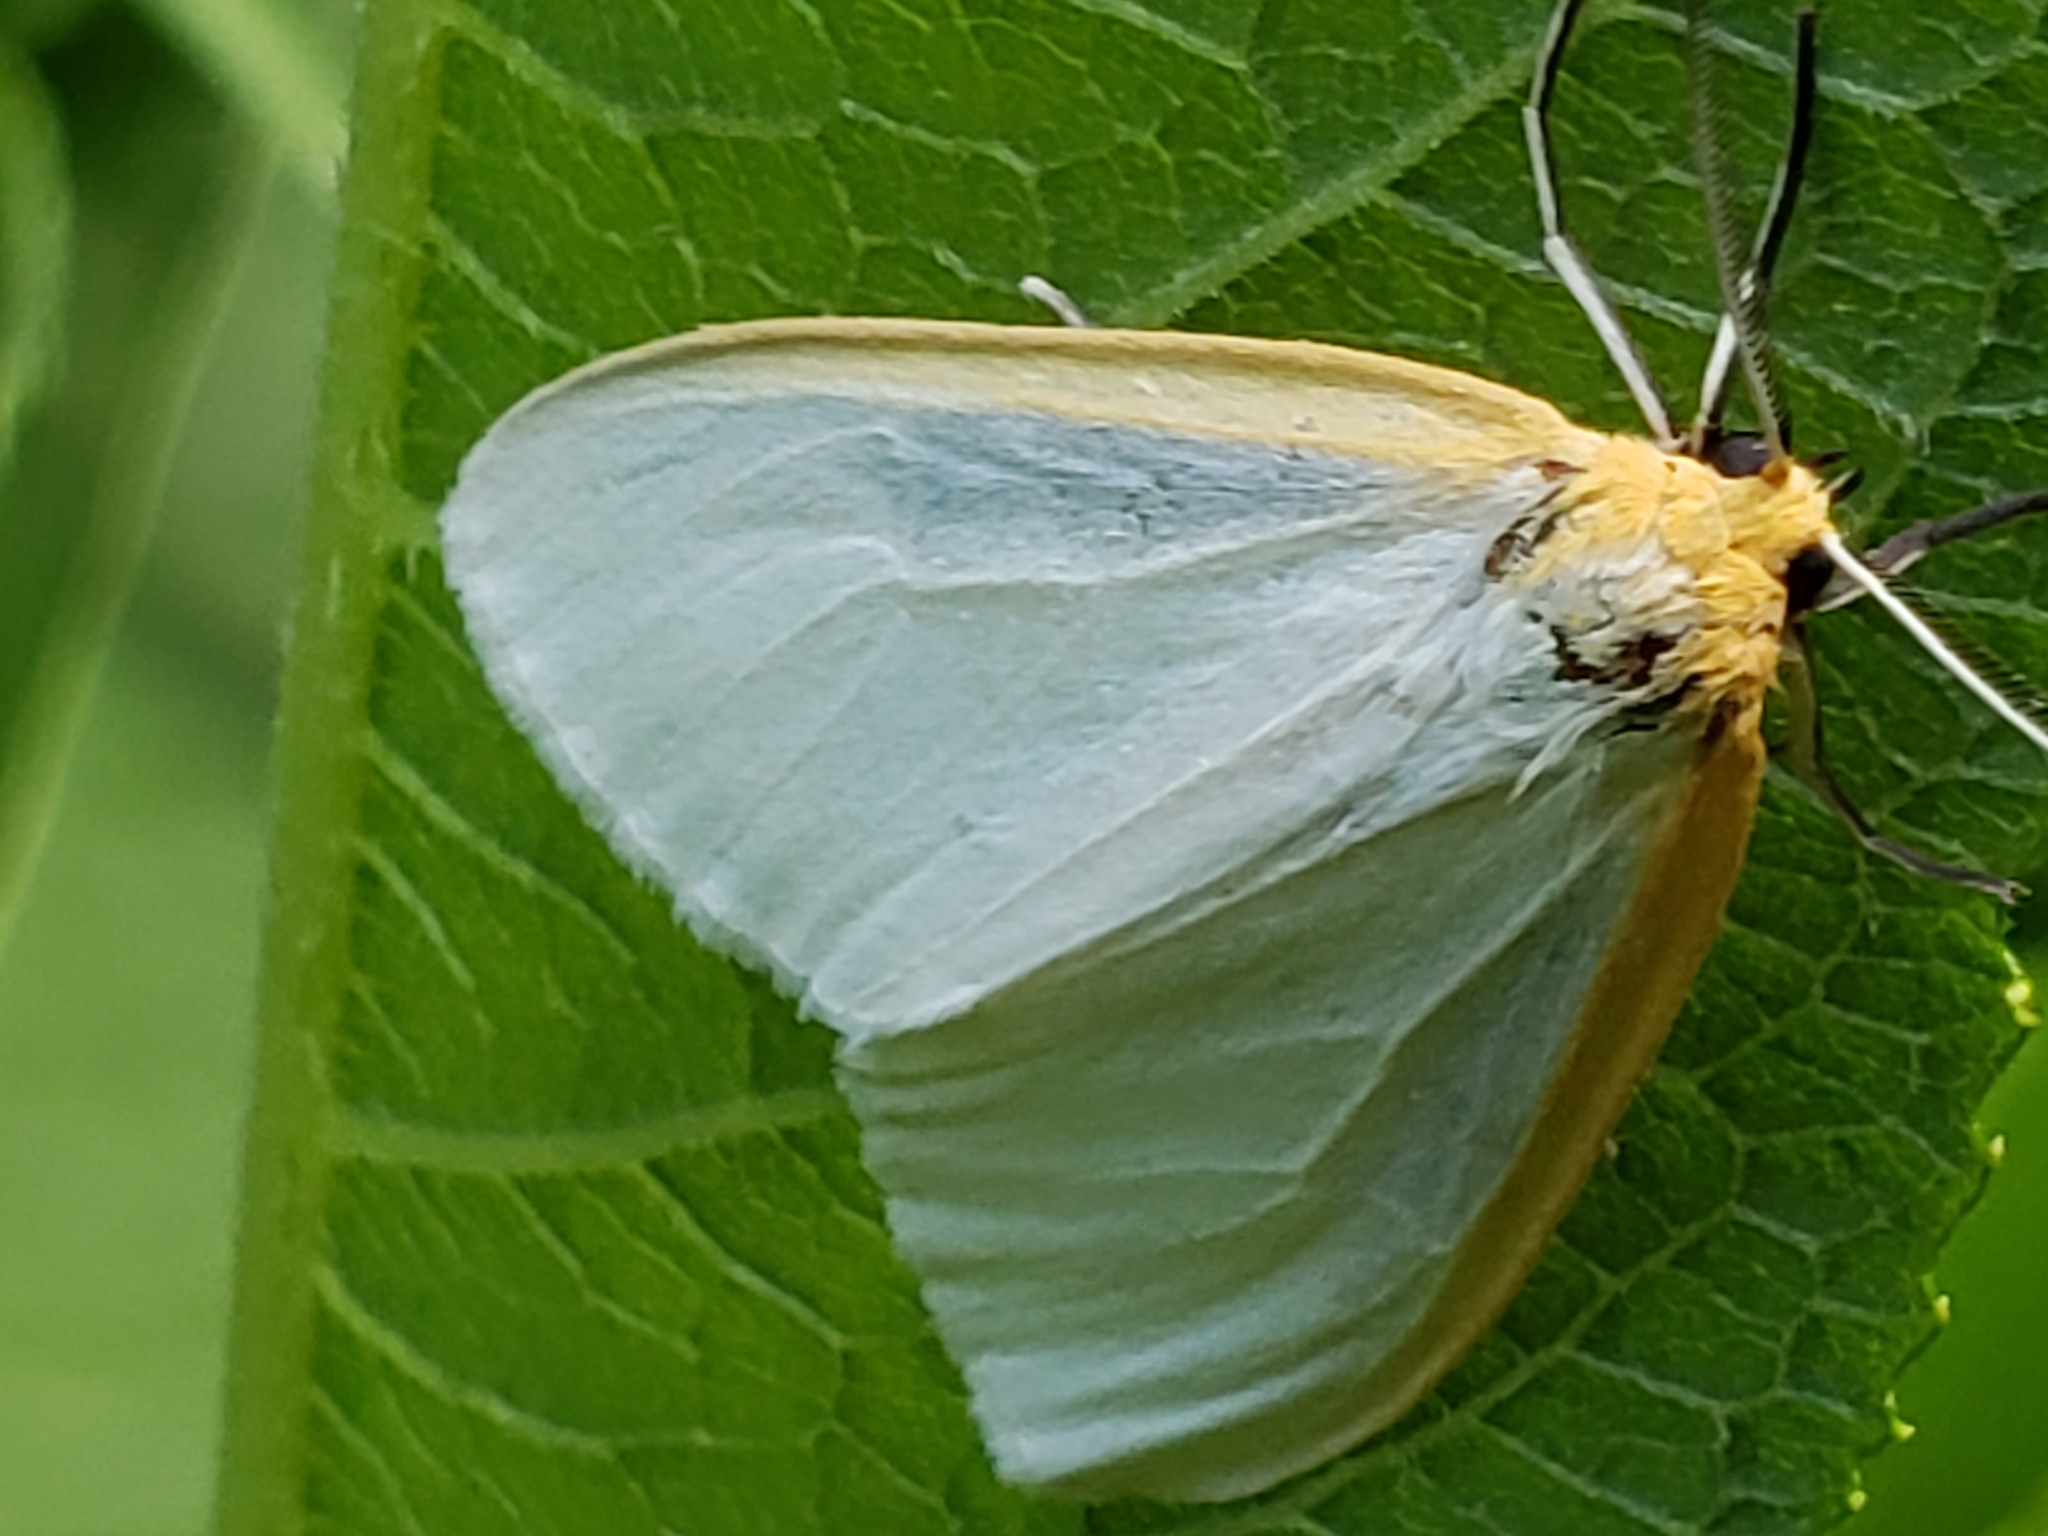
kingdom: Animalia
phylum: Arthropoda
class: Insecta
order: Lepidoptera
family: Erebidae
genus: Cycnia
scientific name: Cycnia tenera
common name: Delicate cycnia moth
